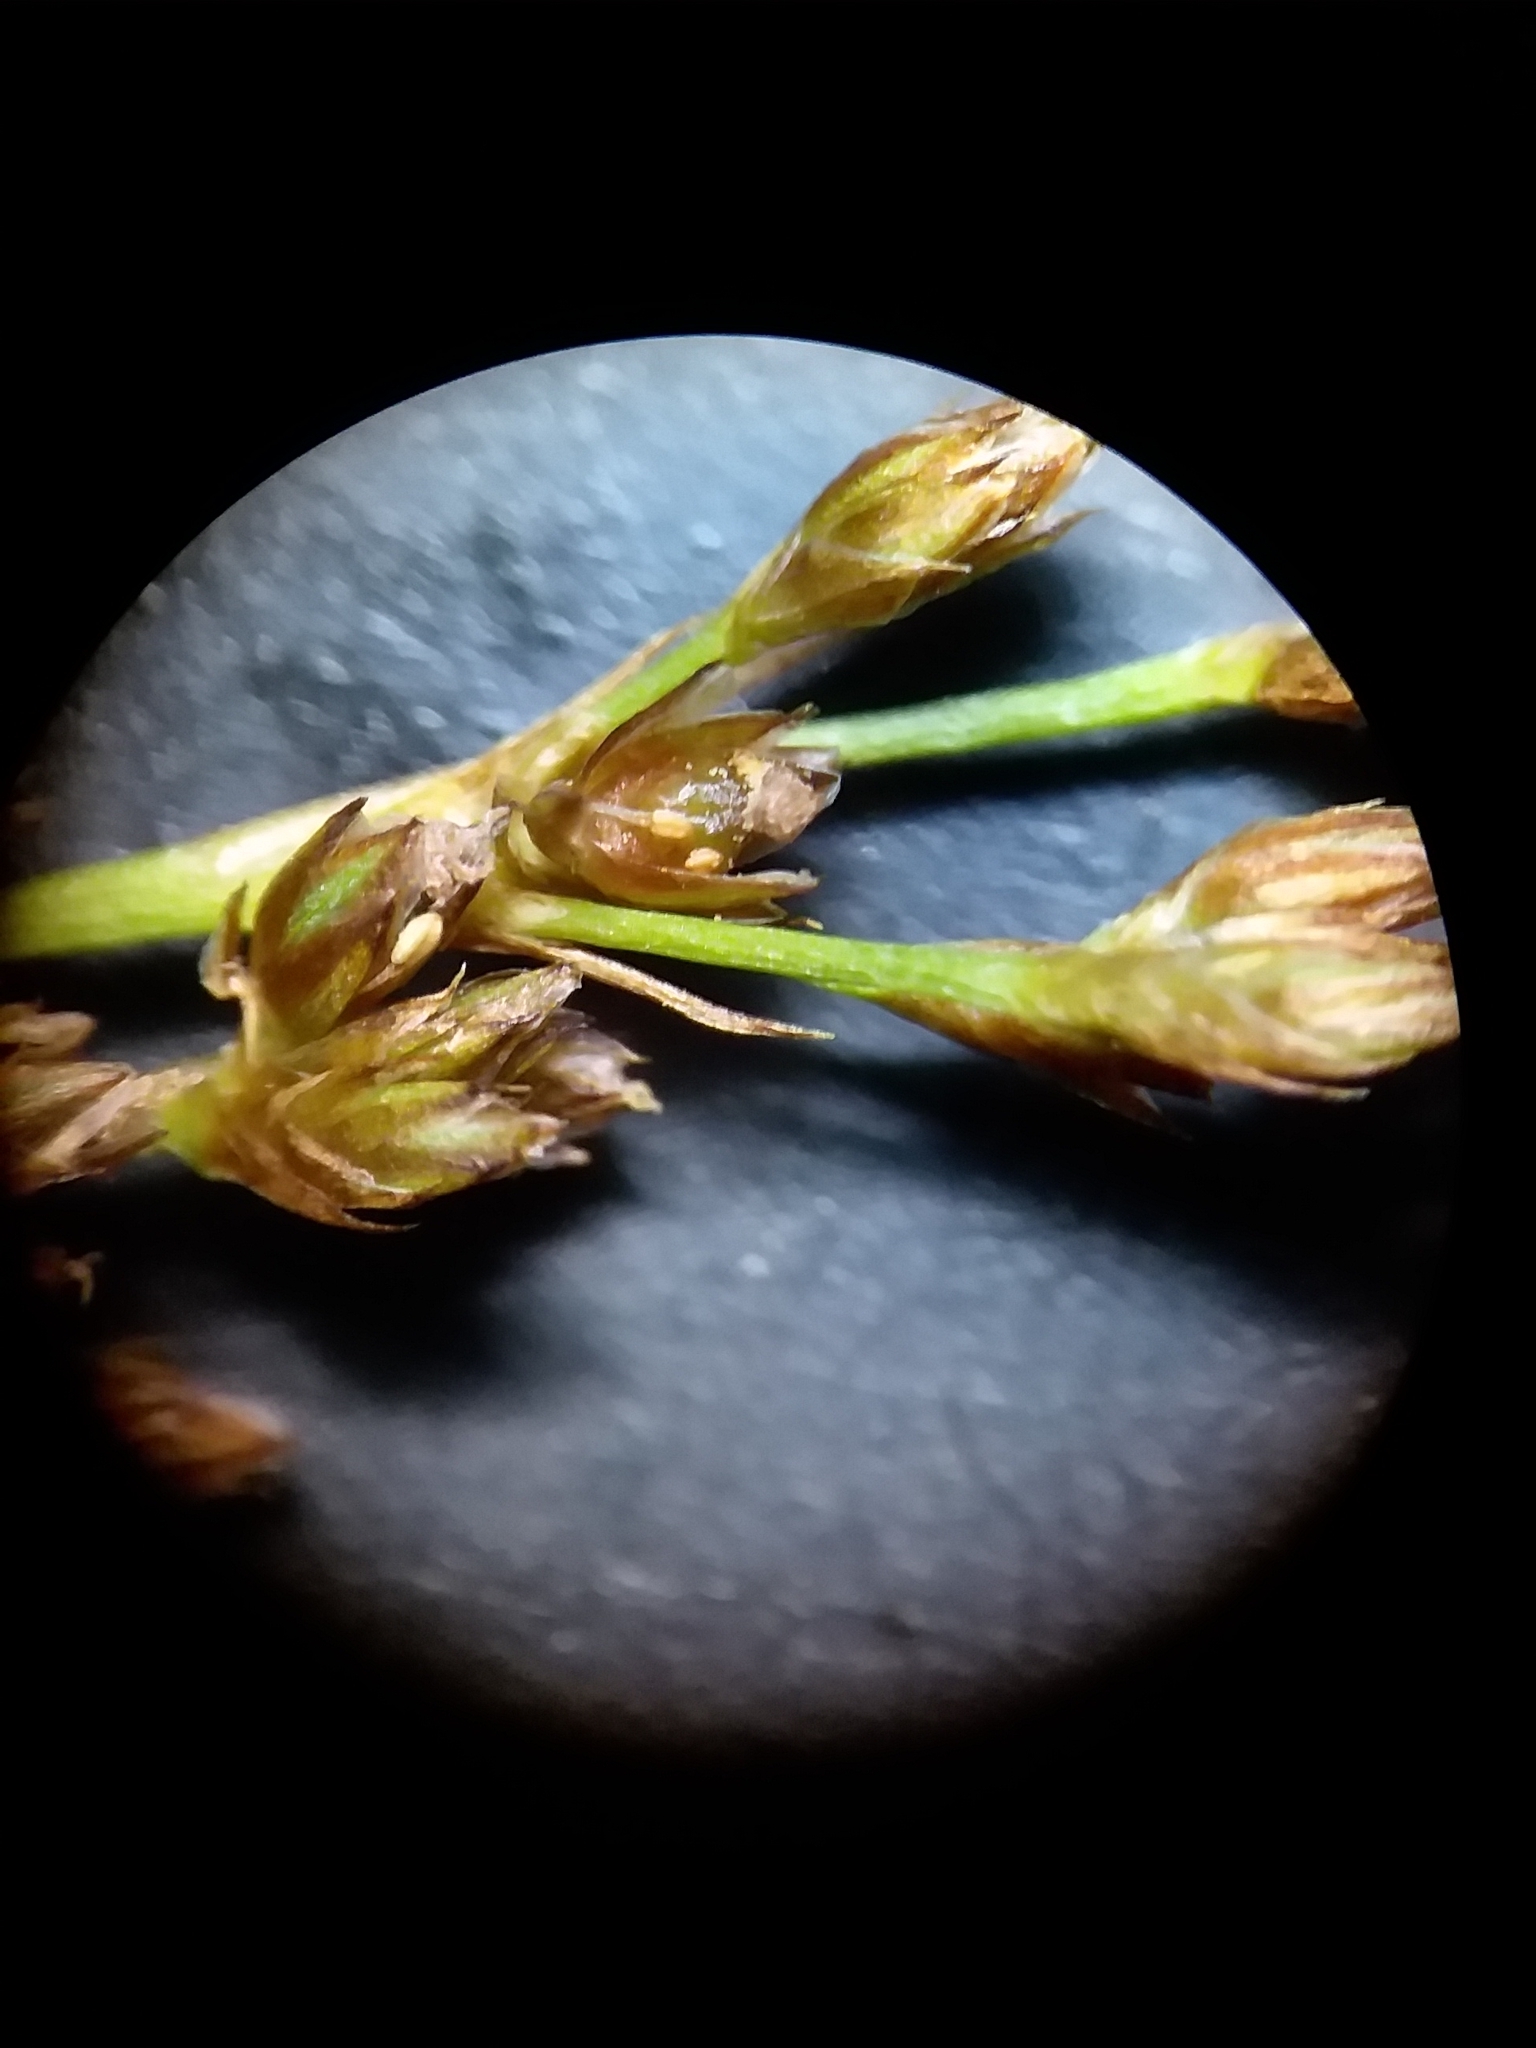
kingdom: Plantae
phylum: Tracheophyta
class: Liliopsida
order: Poales
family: Juncaceae
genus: Juncus
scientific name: Juncus marginatus
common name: Grass-leaf rush
